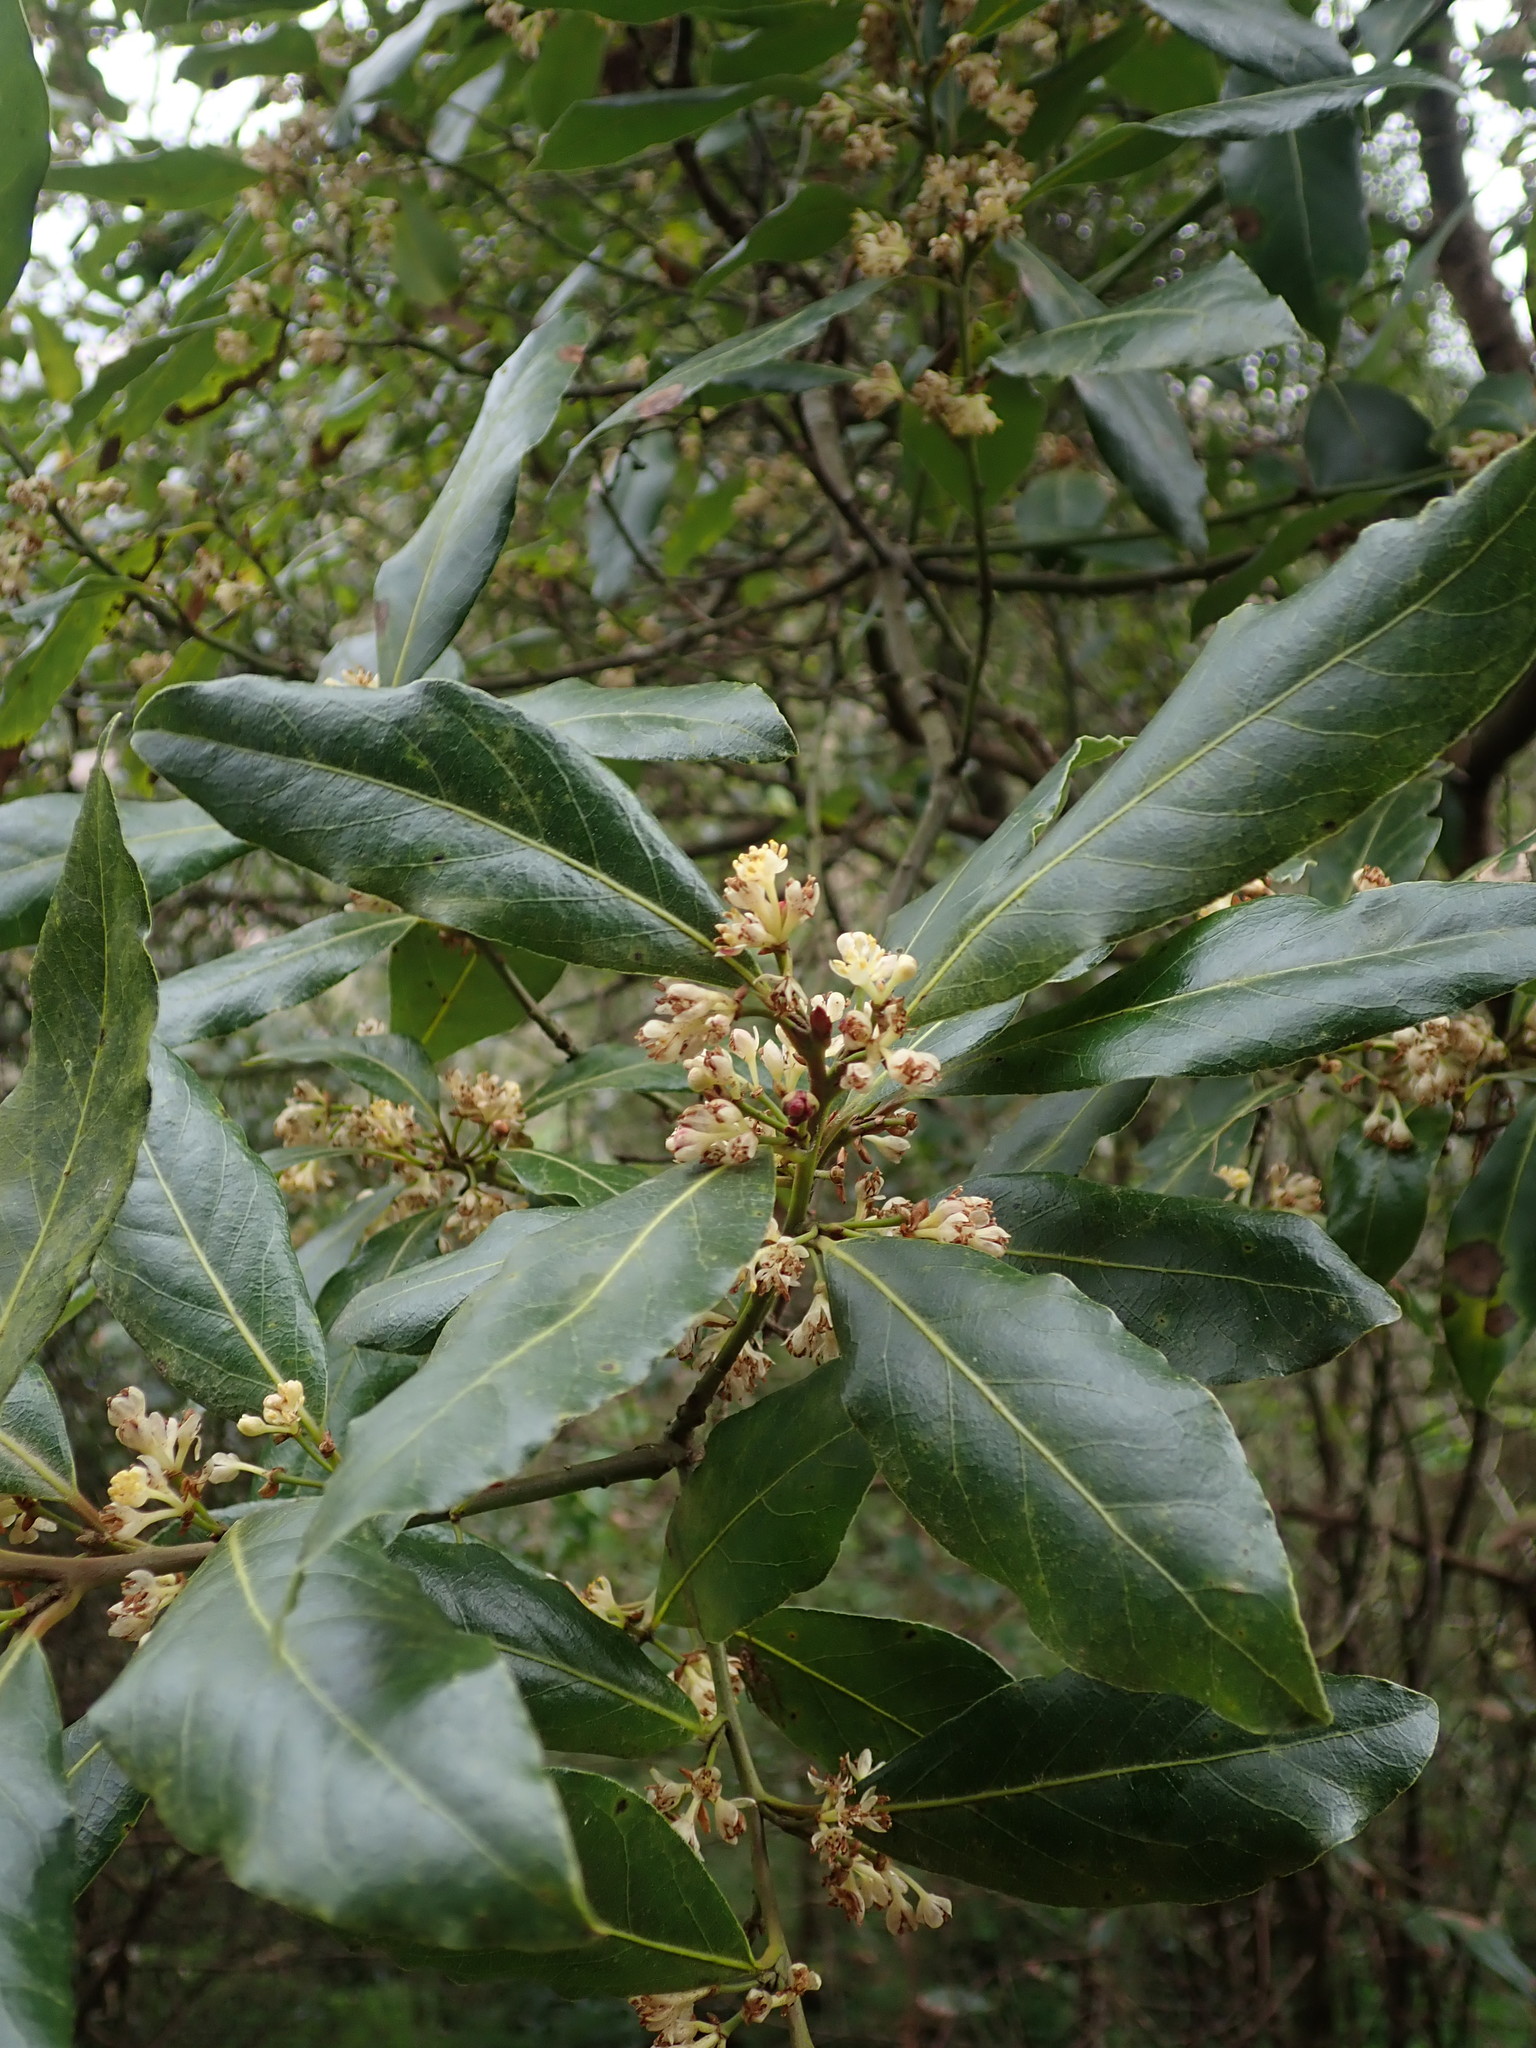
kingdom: Plantae
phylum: Tracheophyta
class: Magnoliopsida
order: Laurales
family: Lauraceae
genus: Laurus
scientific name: Laurus nobilis
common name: Bay
